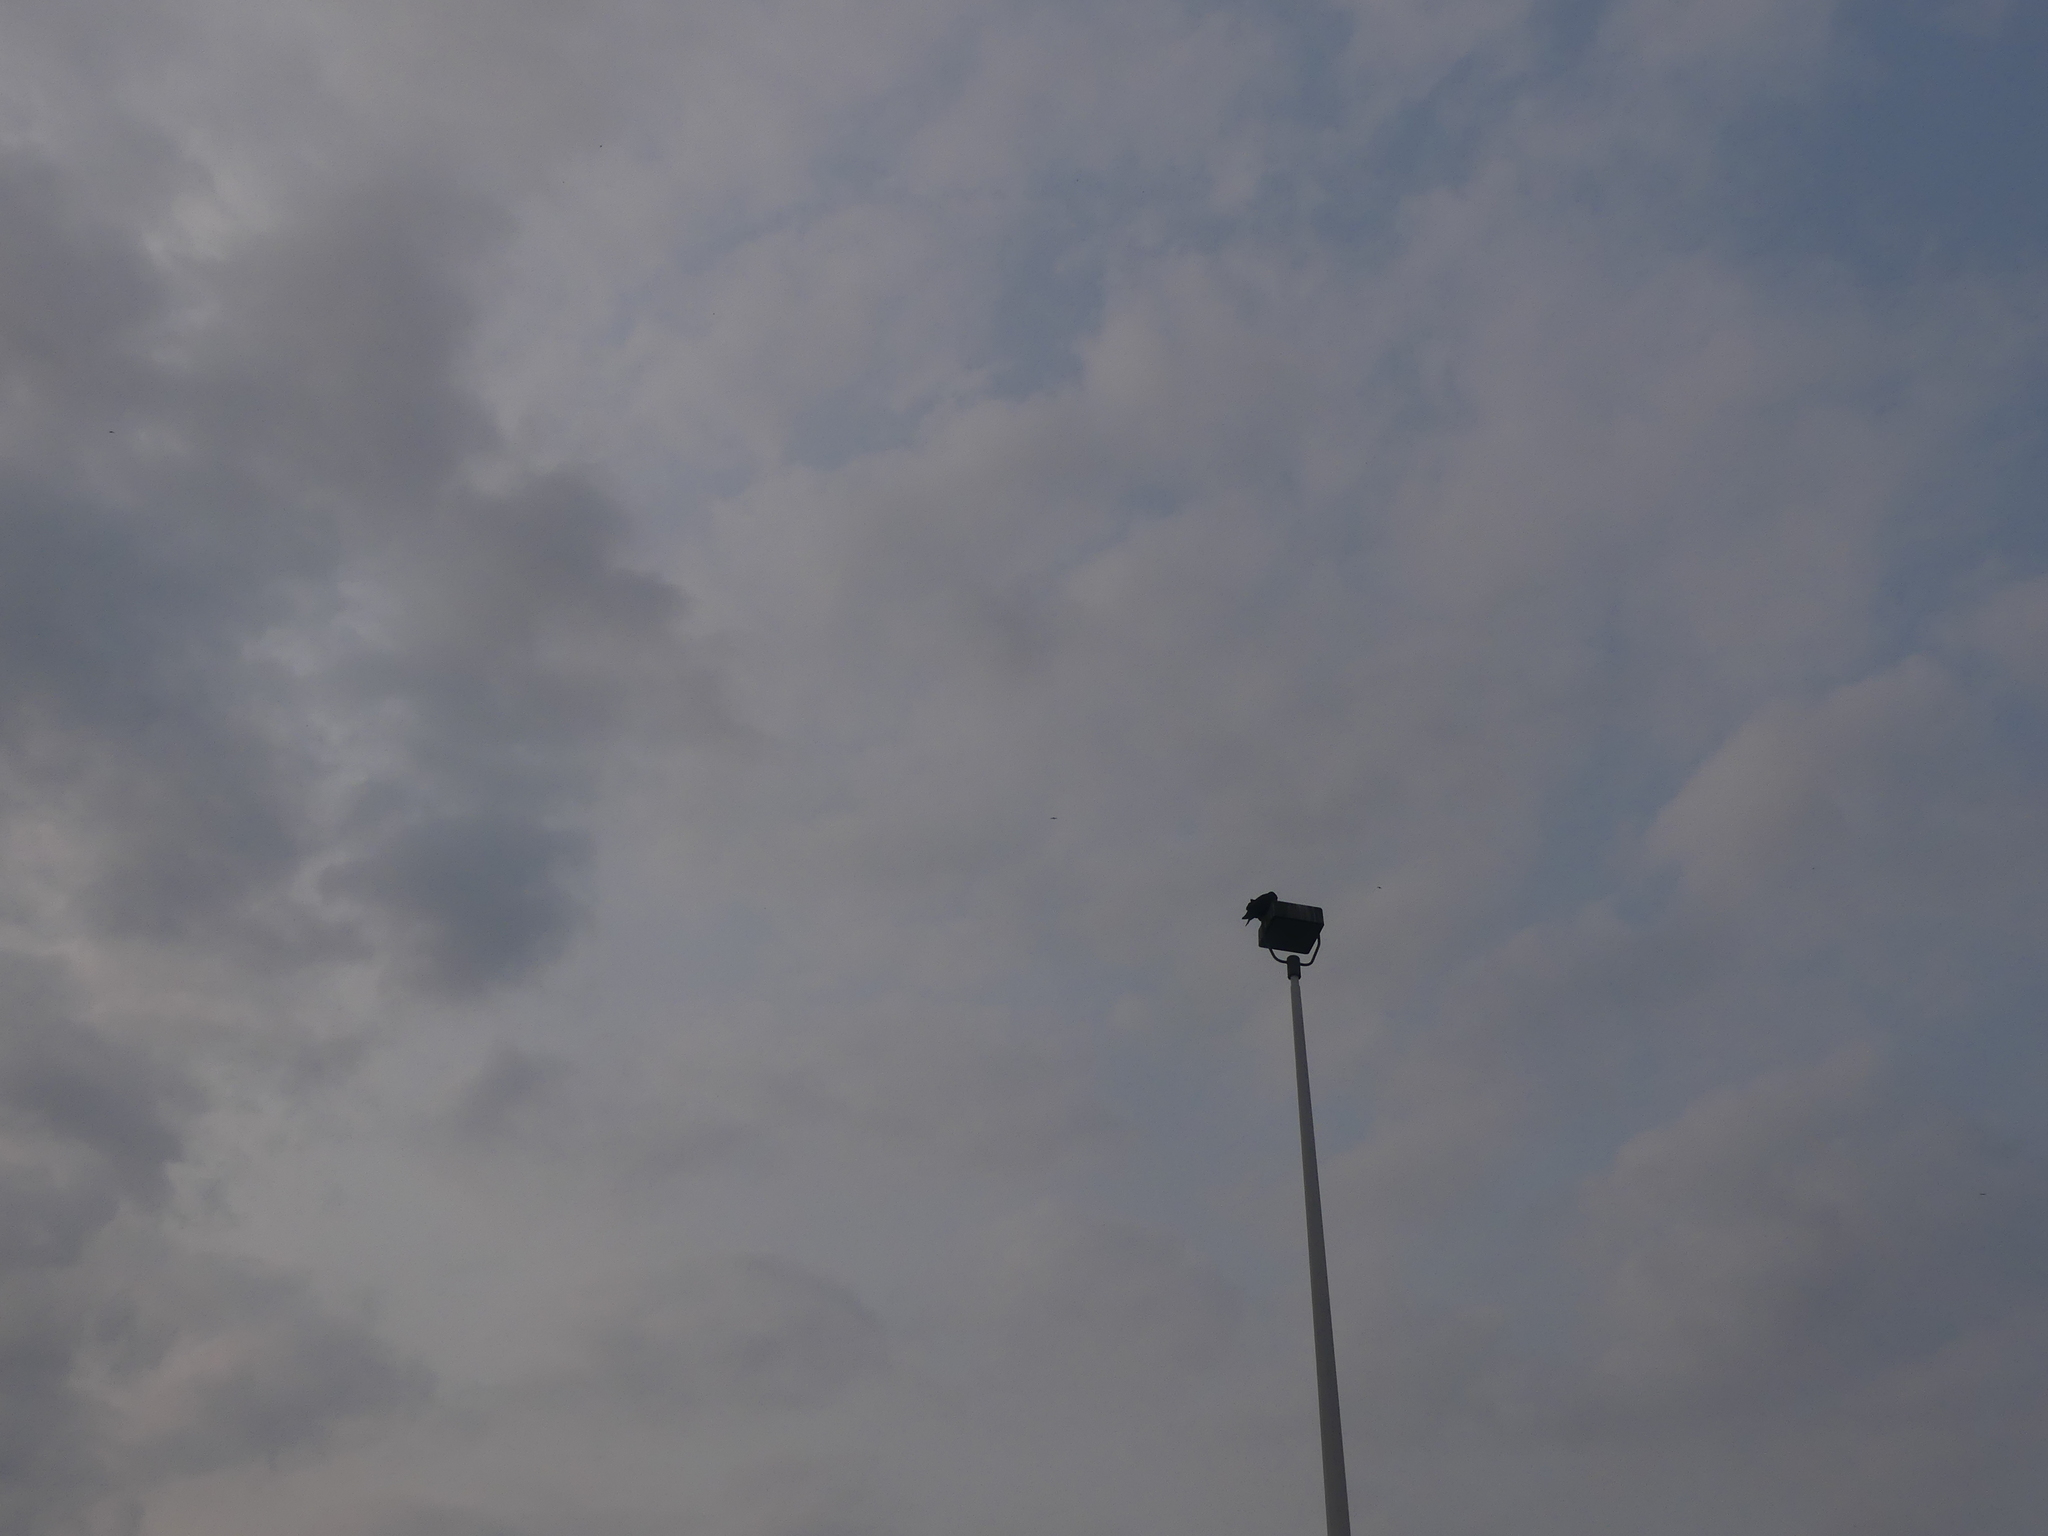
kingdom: Animalia
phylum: Chordata
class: Aves
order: Passeriformes
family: Corvidae
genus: Corvus
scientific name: Corvus brachyrhynchos
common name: American crow
